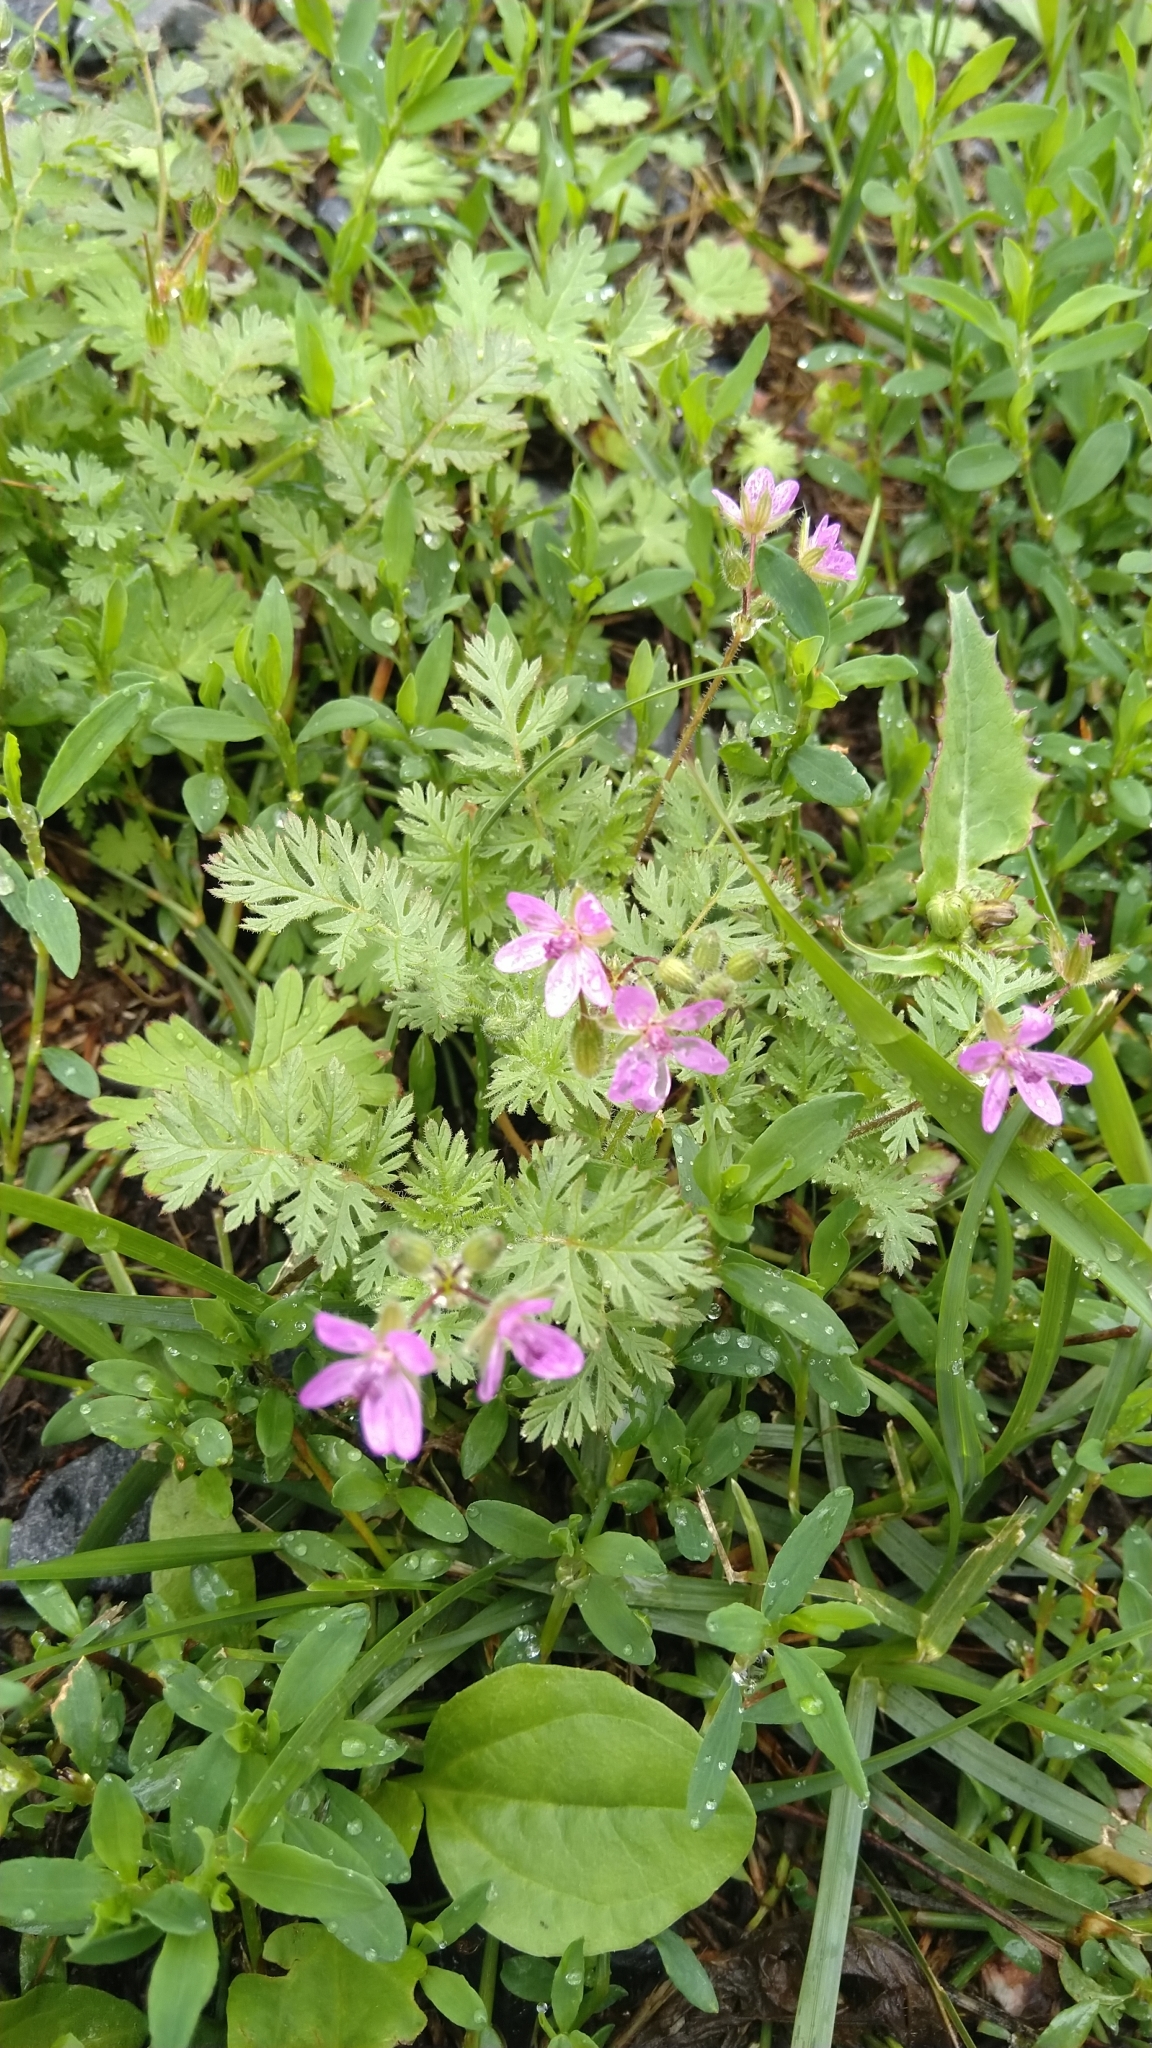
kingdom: Plantae
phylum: Tracheophyta
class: Magnoliopsida
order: Geraniales
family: Geraniaceae
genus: Erodium
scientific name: Erodium cicutarium
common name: Common stork's-bill
